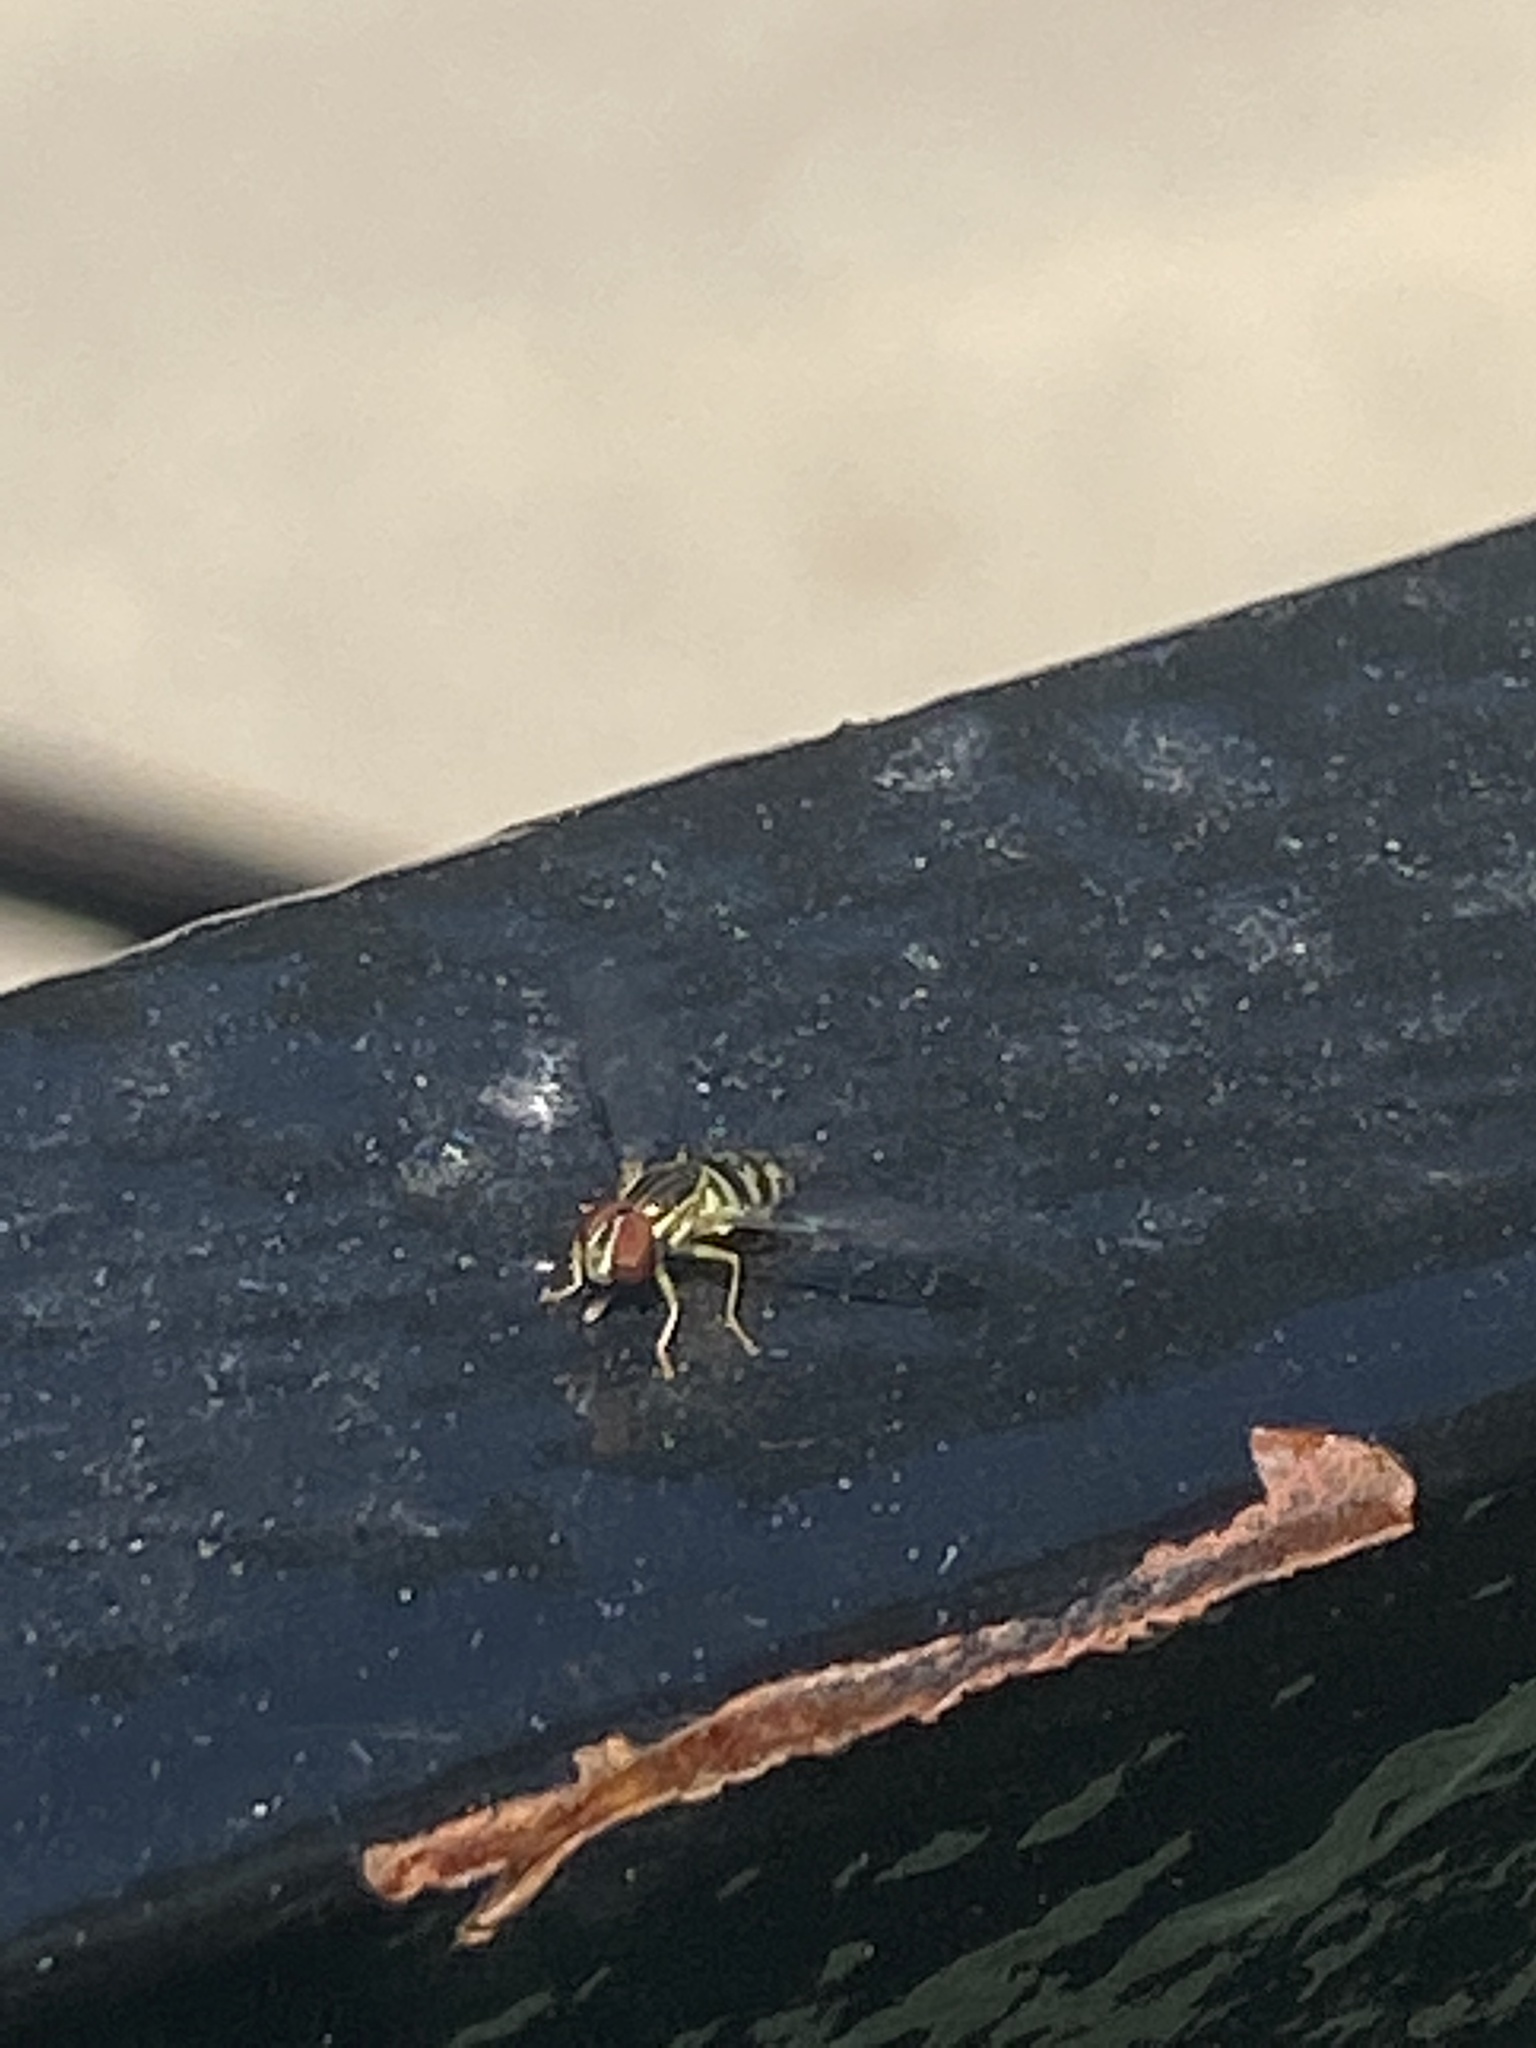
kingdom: Animalia
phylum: Arthropoda
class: Insecta
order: Diptera
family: Syrphidae
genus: Toxomerus
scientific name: Toxomerus geminatus
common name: Eastern calligrapher
